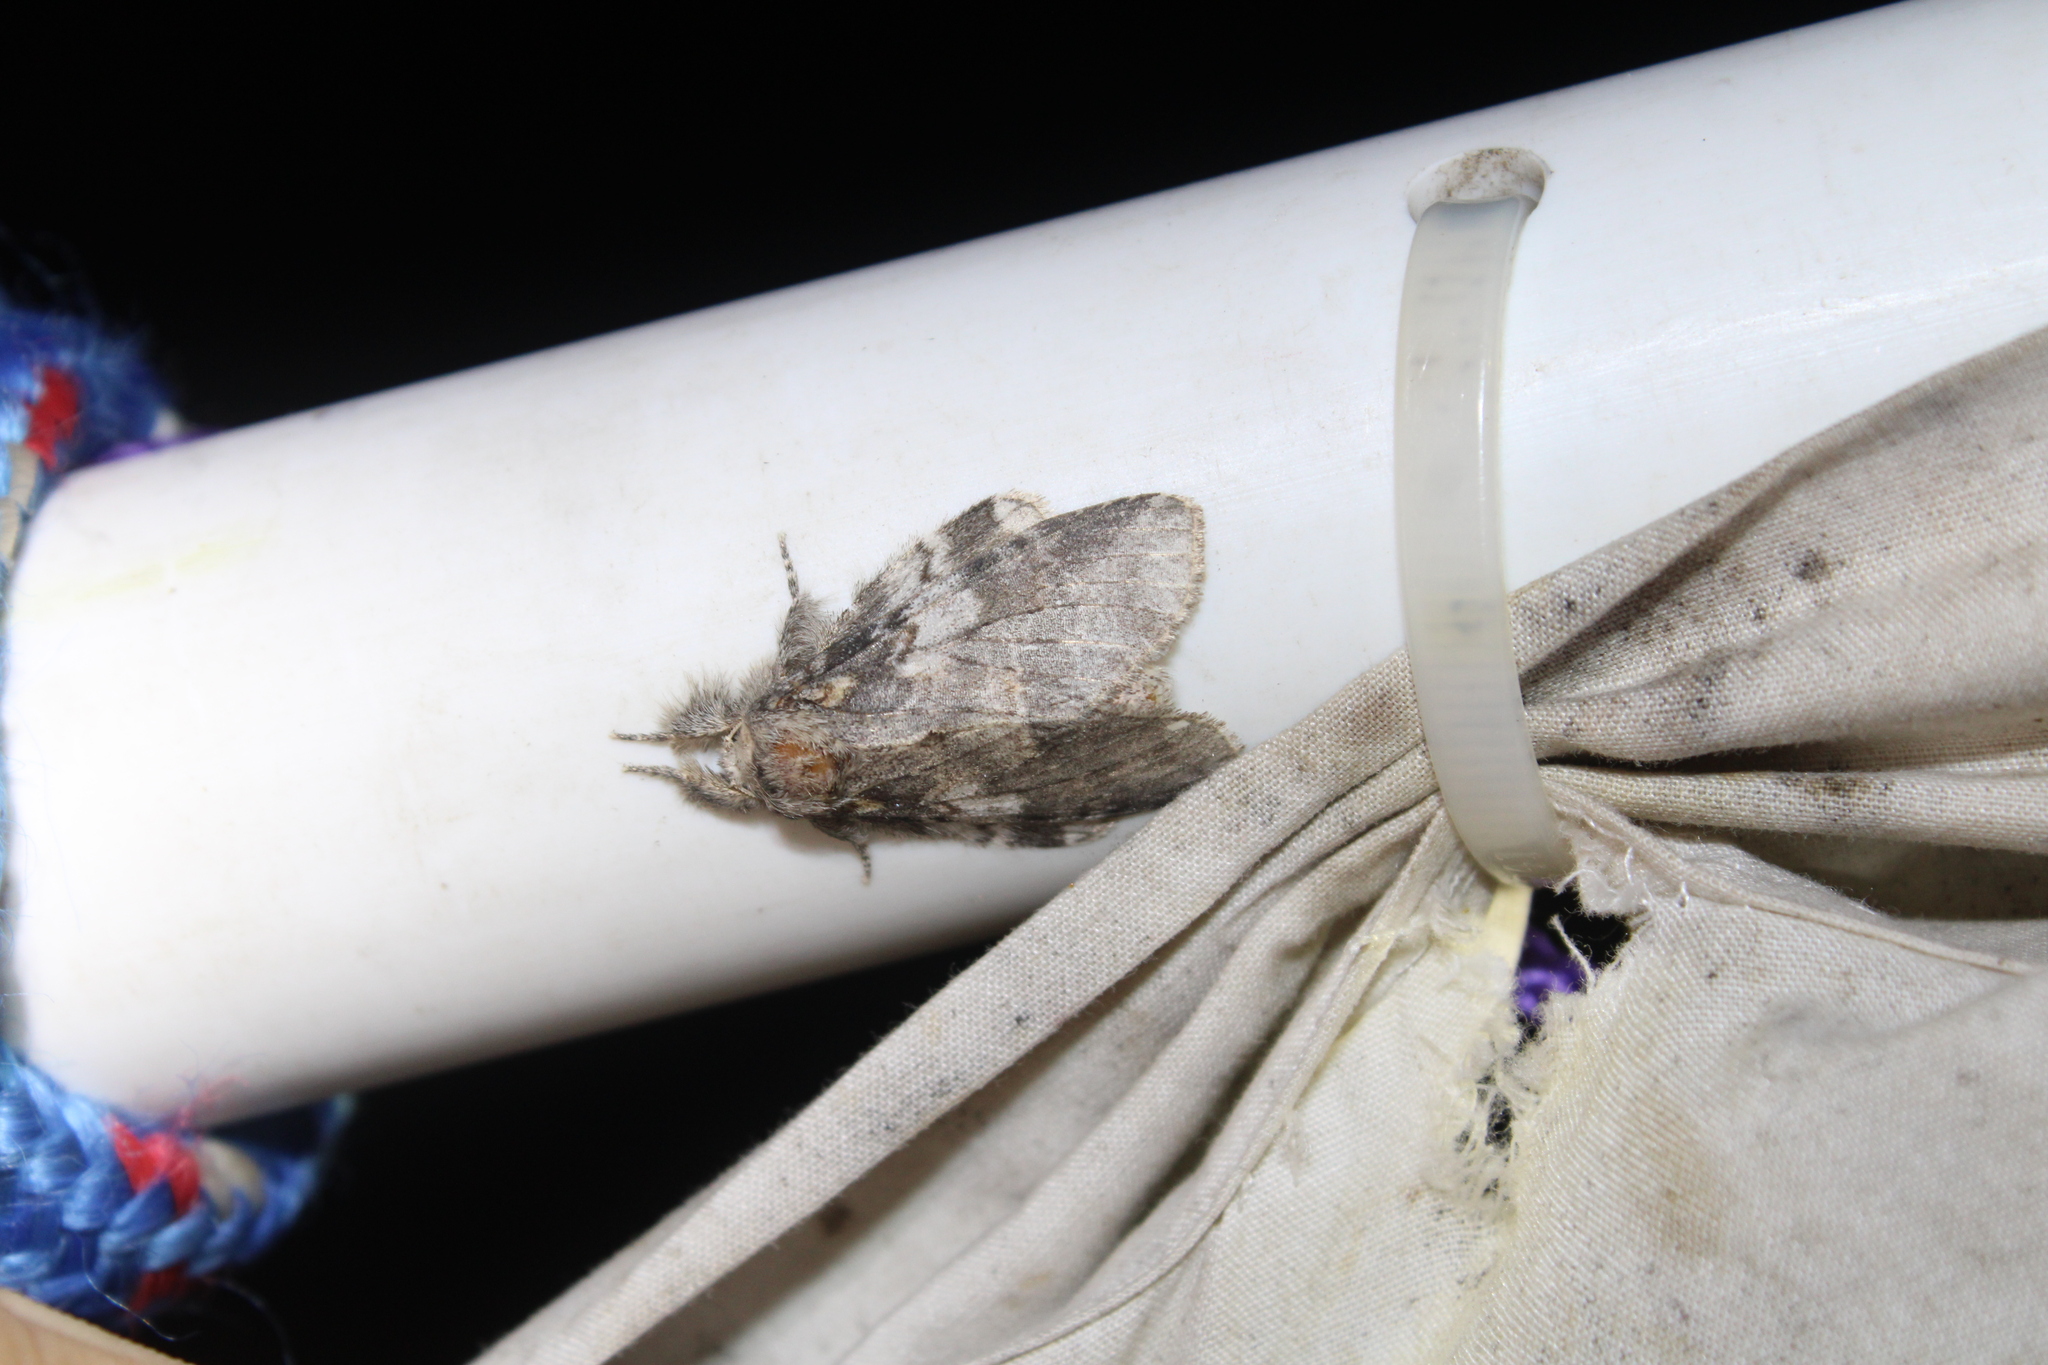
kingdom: Animalia
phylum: Arthropoda
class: Insecta
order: Lepidoptera
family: Notodontidae
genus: Peridea
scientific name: Peridea angulosa
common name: Angulose prominent
